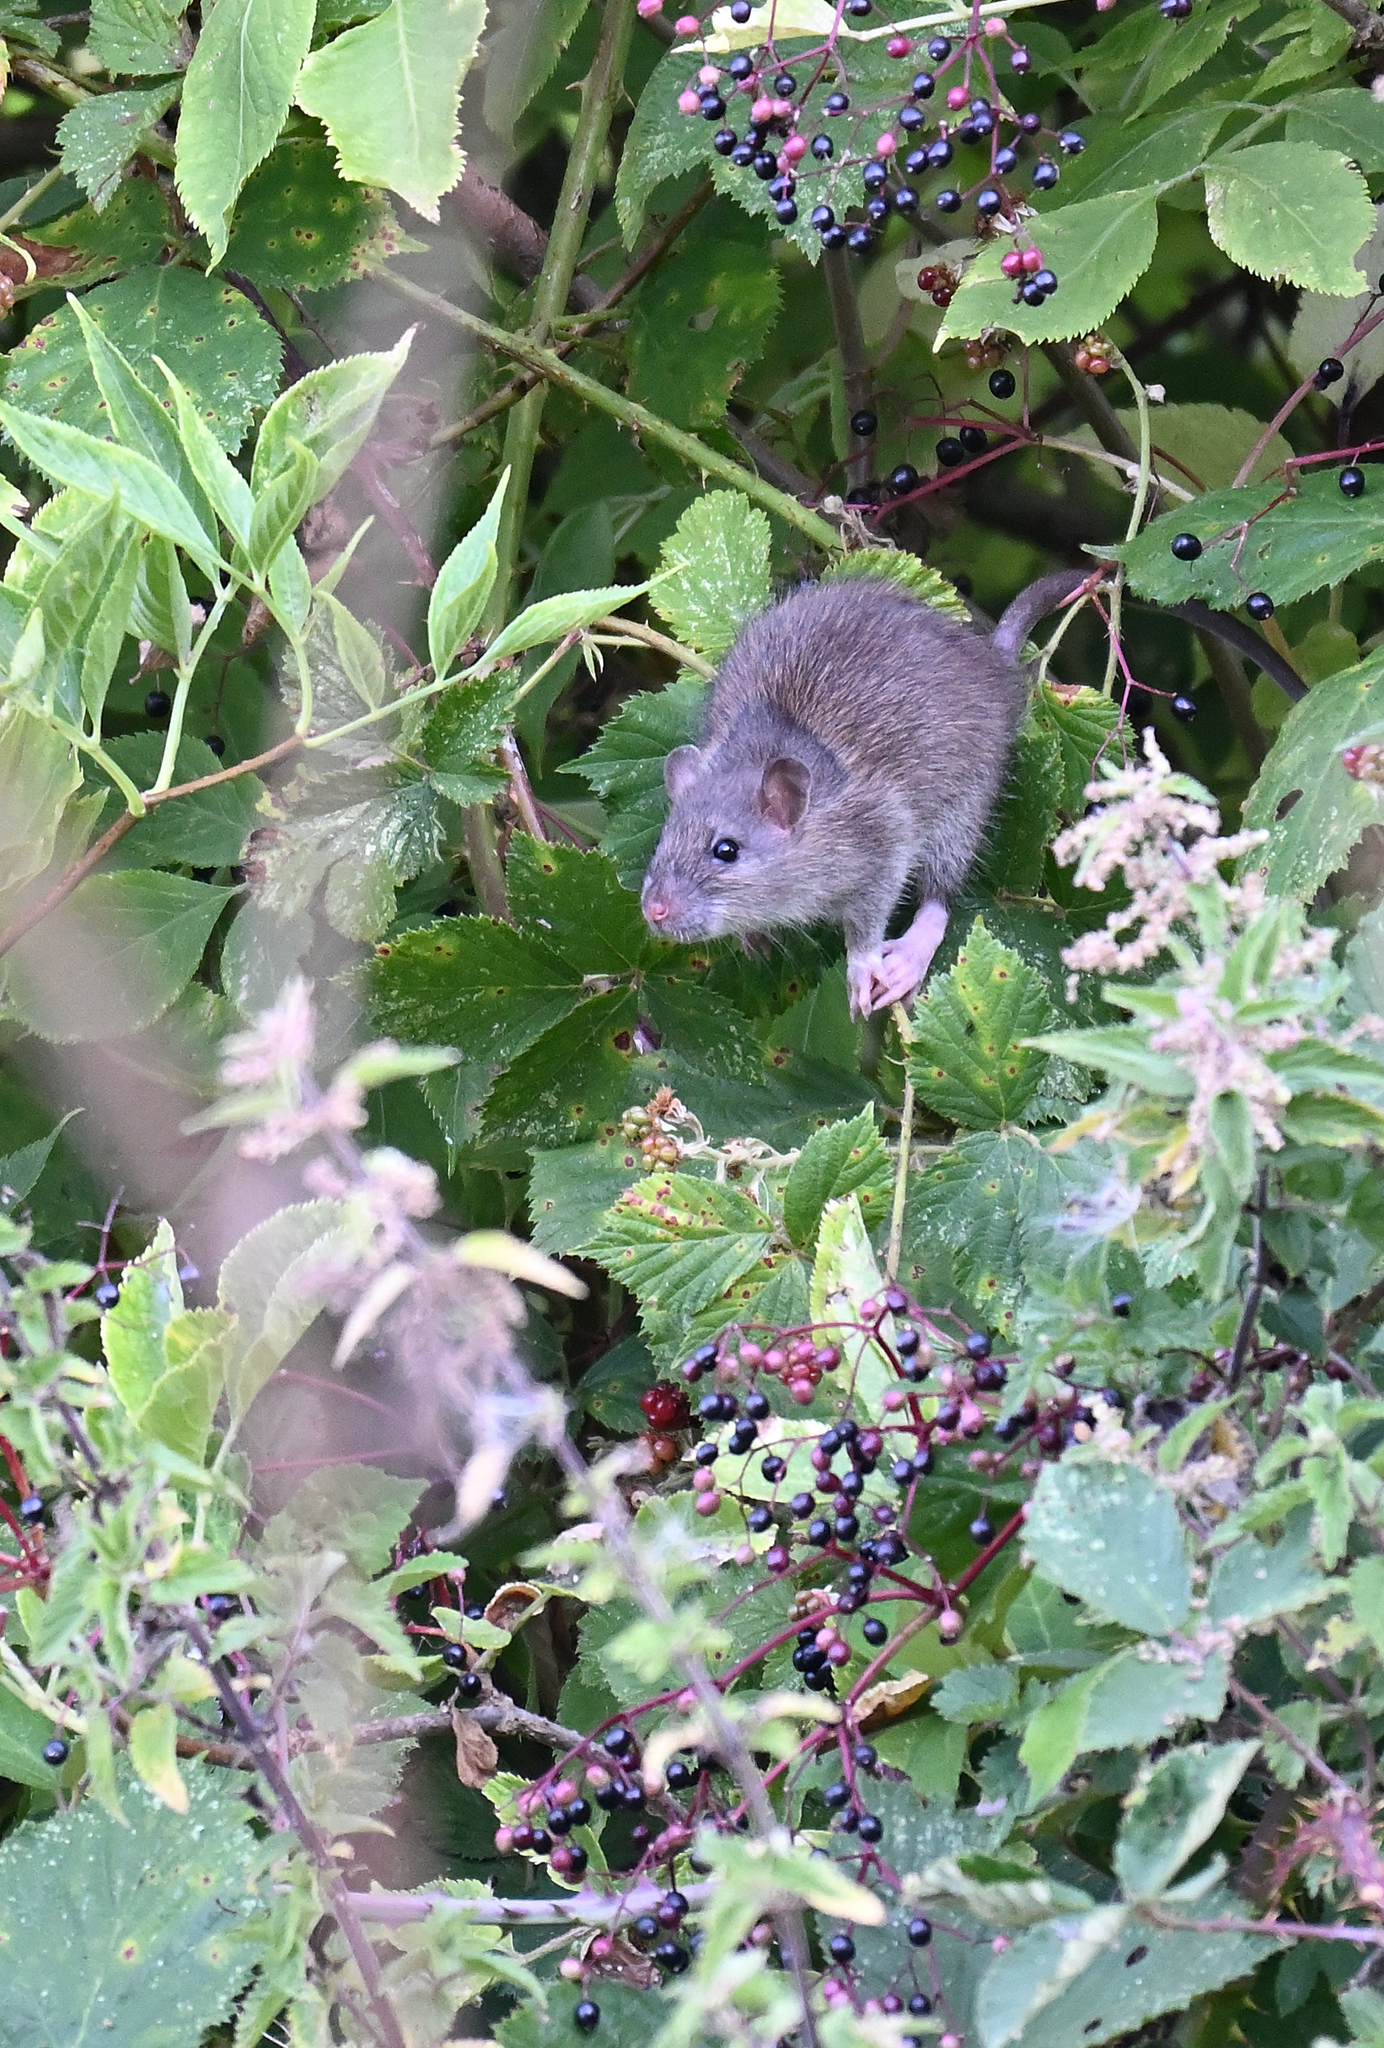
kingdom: Animalia
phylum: Chordata
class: Mammalia
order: Rodentia
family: Muridae
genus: Rattus
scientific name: Rattus norvegicus
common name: Brown rat
